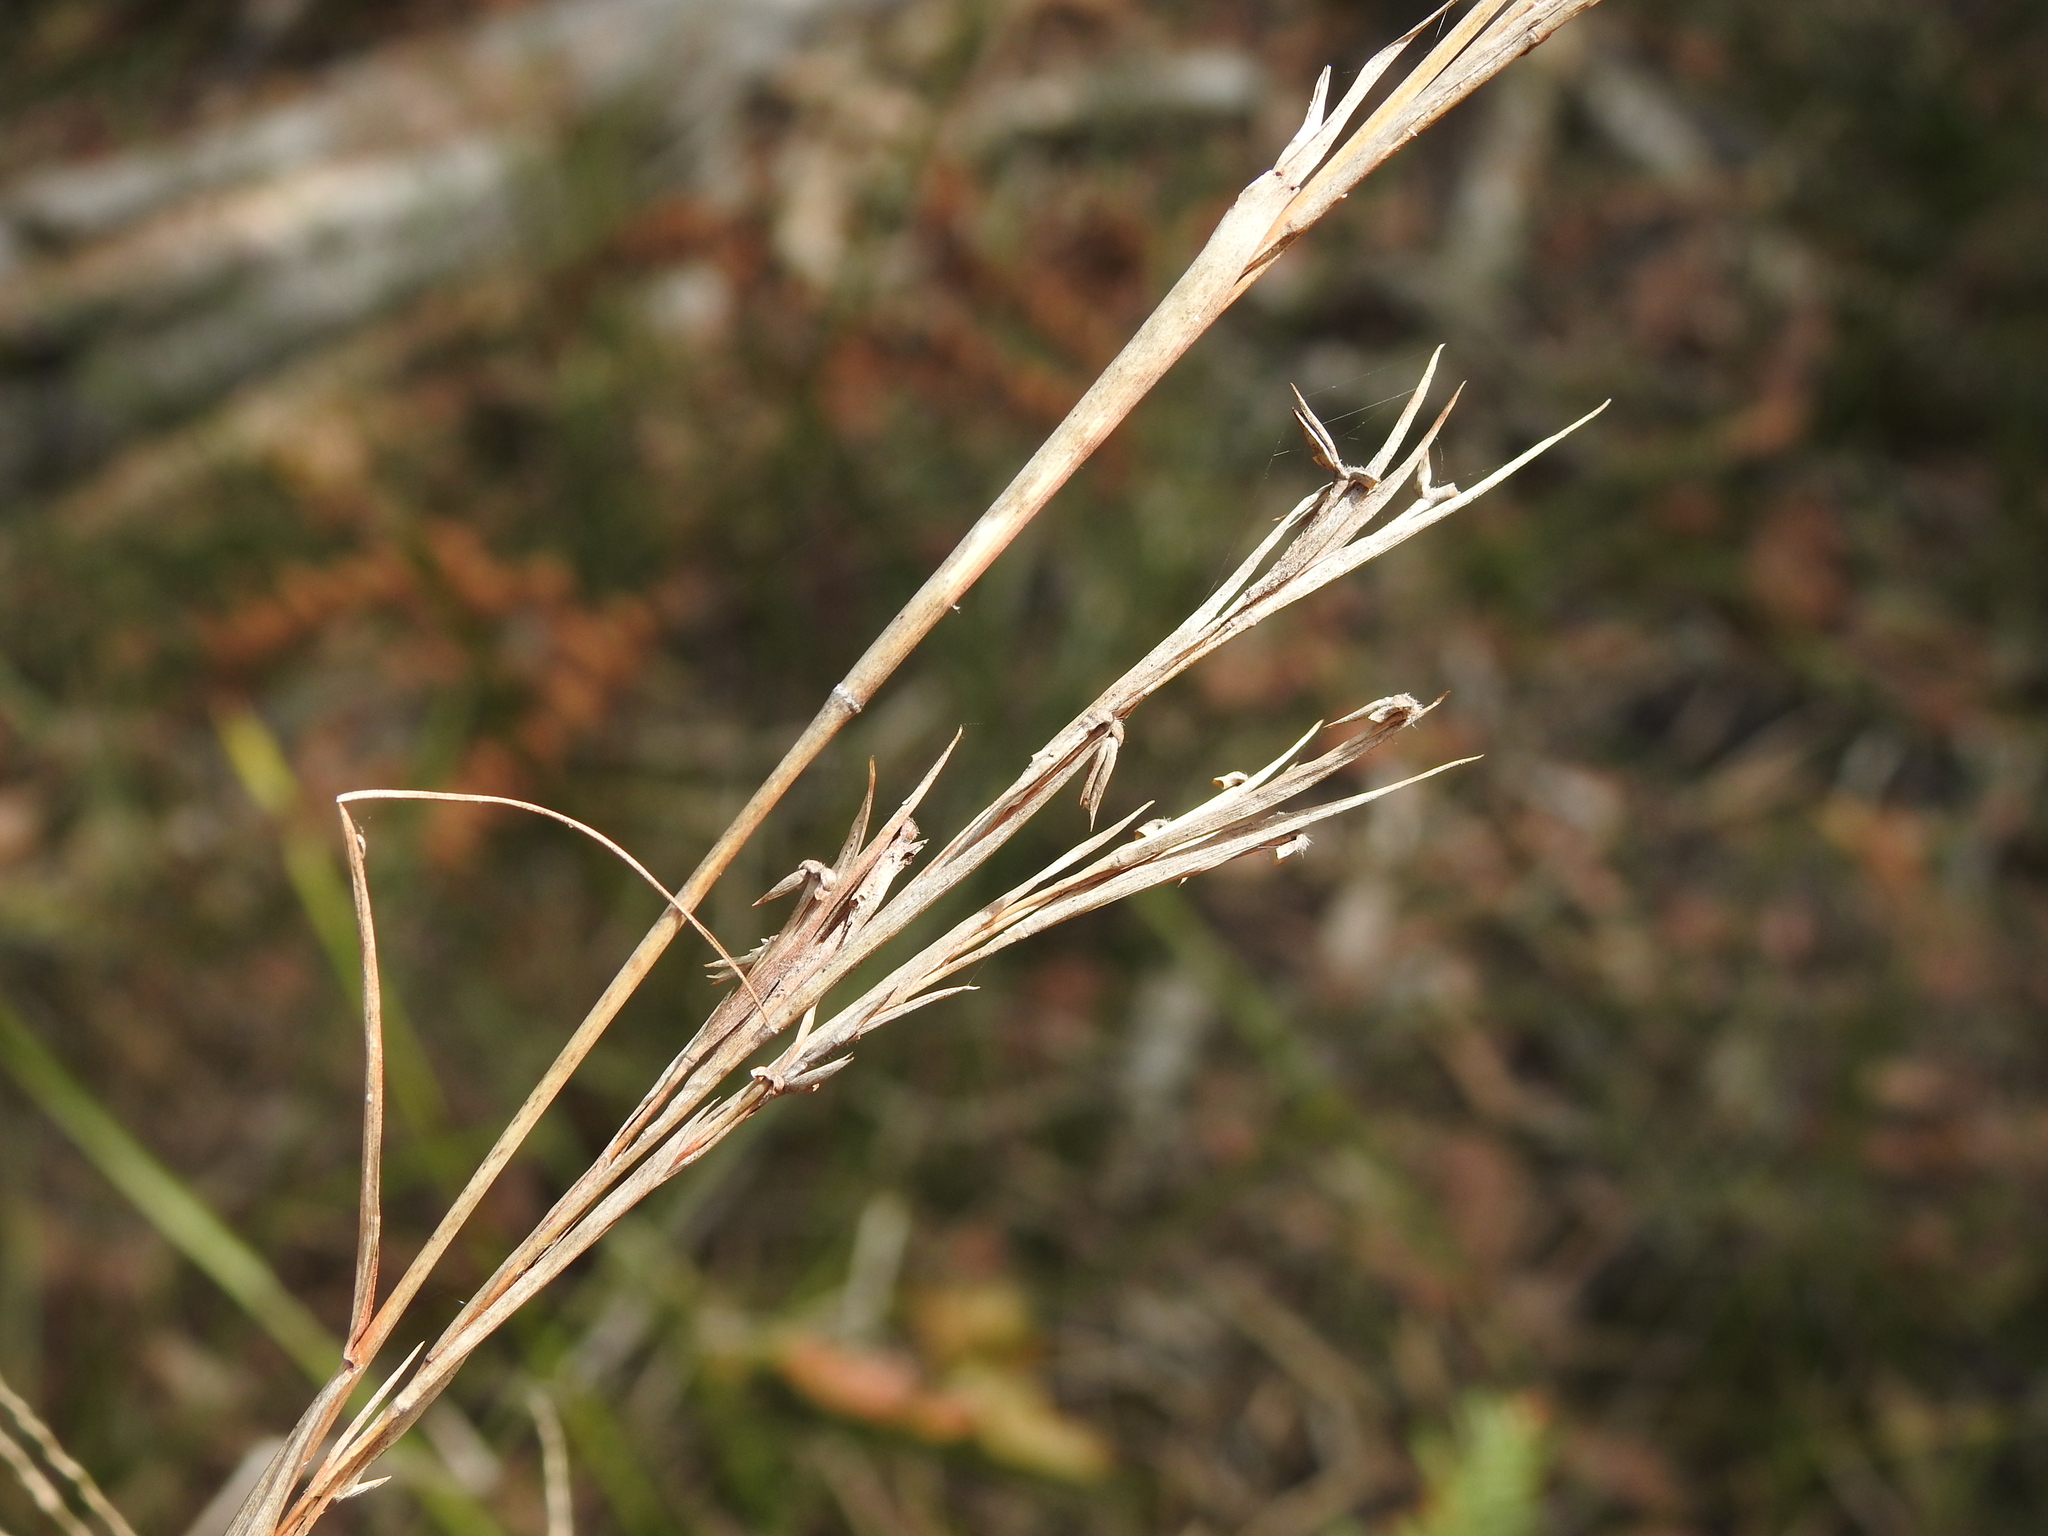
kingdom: Plantae
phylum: Tracheophyta
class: Liliopsida
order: Poales
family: Poaceae
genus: Cymbopogon
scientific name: Cymbopogon refractus
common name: Barbwire grass
